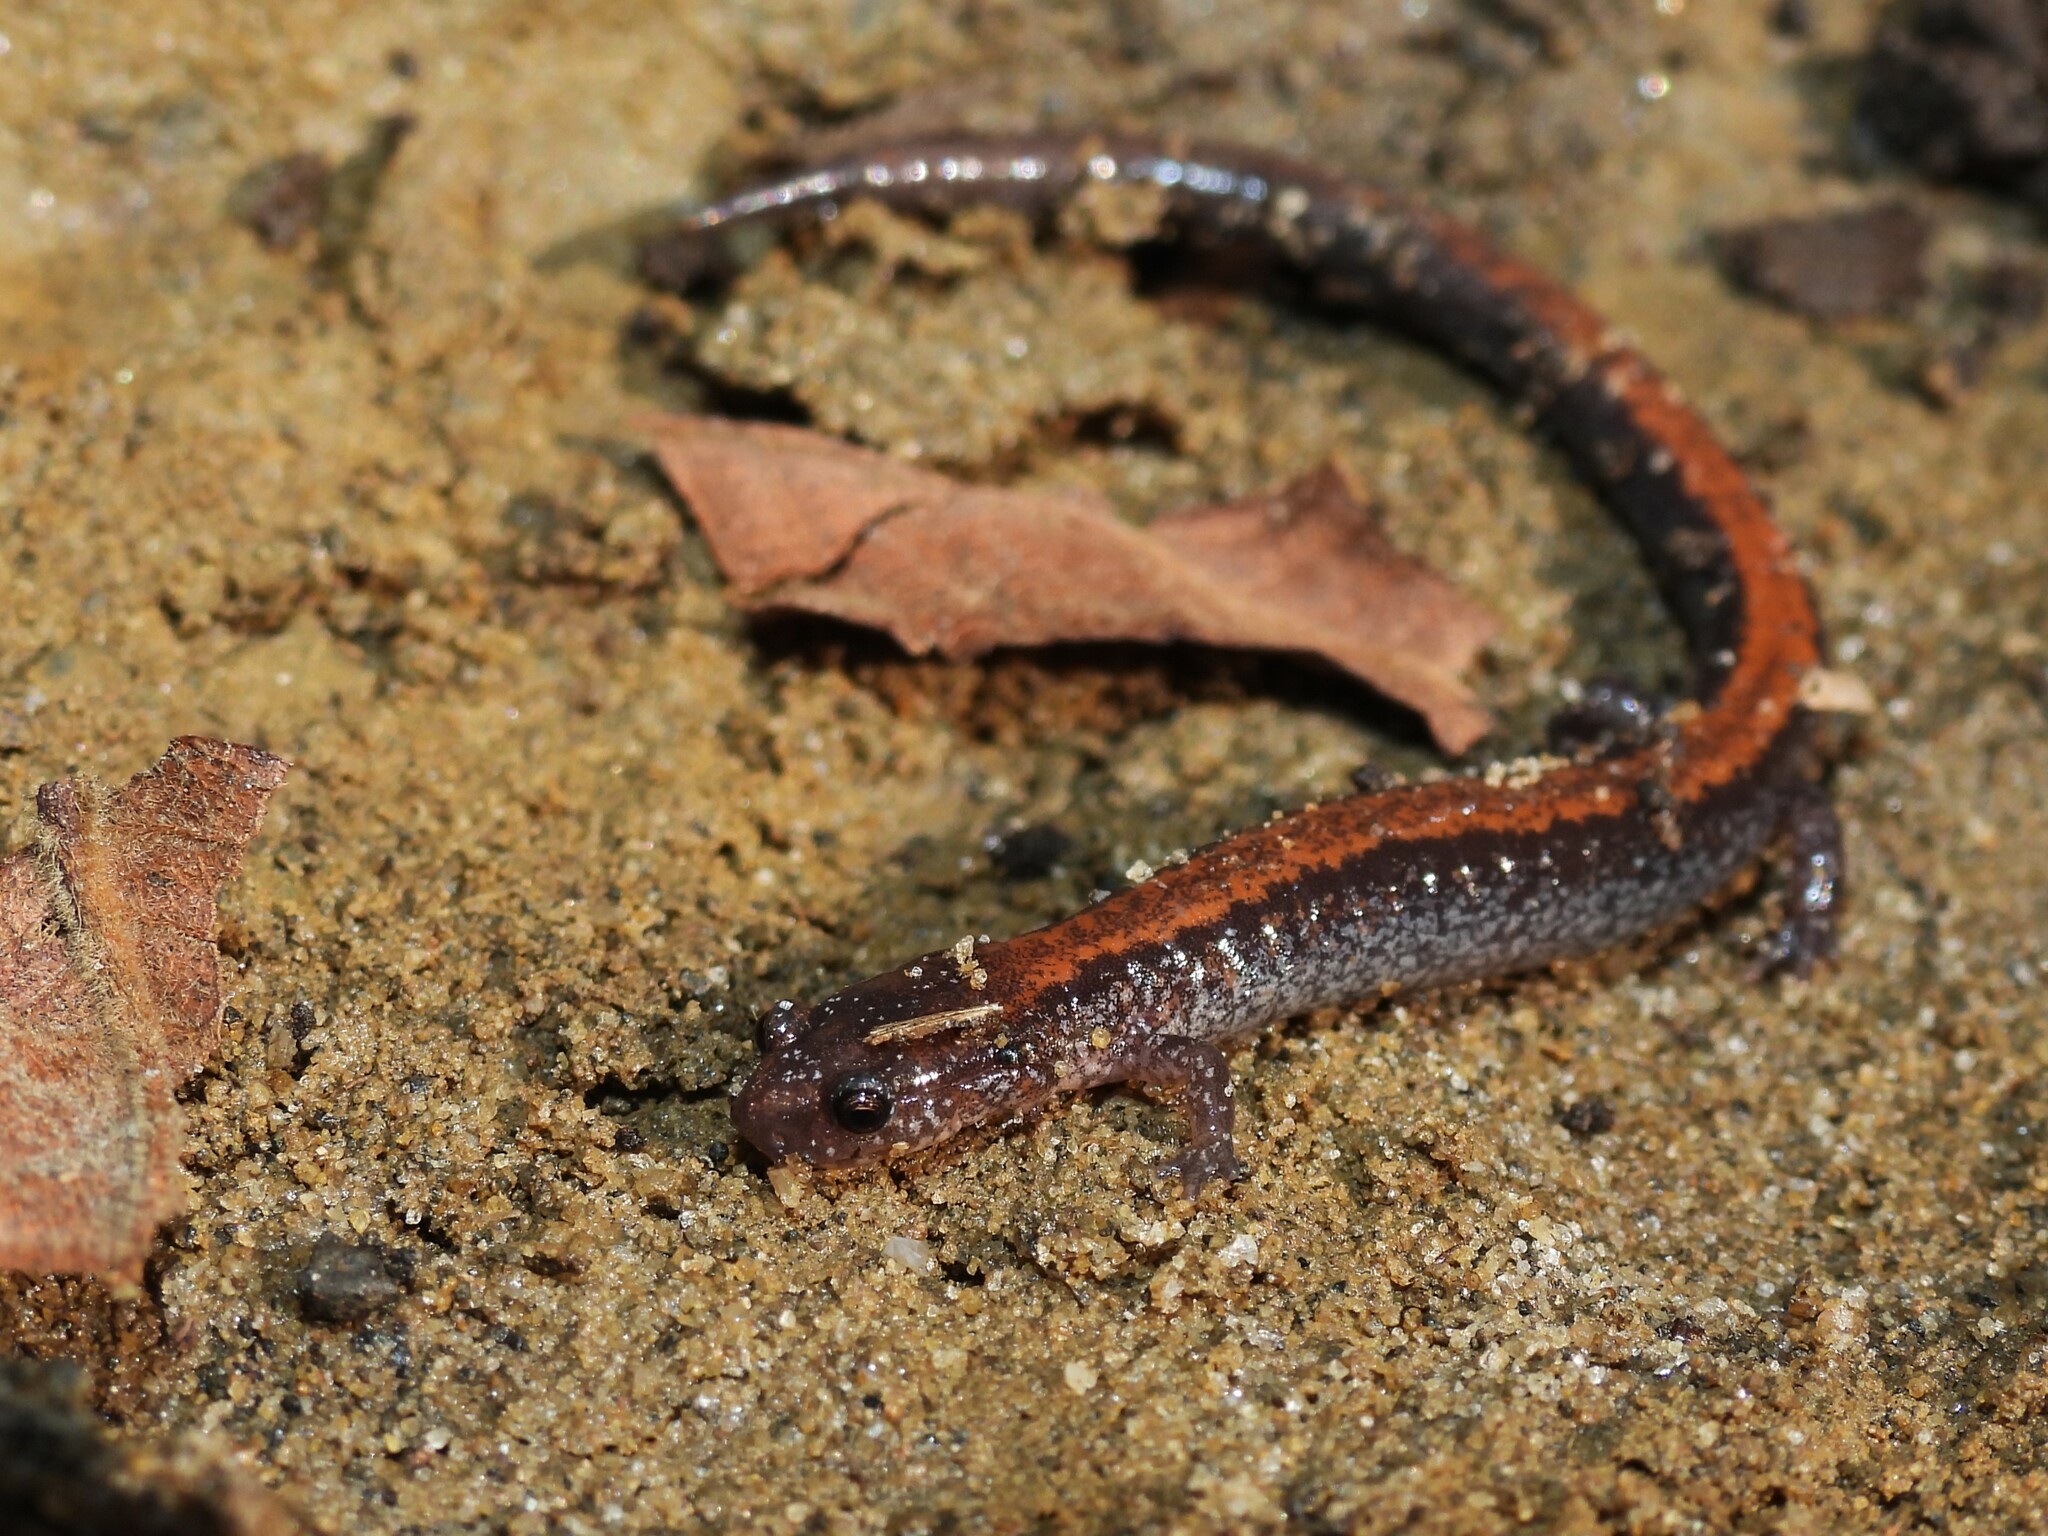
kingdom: Animalia
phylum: Chordata
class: Amphibia
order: Caudata
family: Plethodontidae
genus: Plethodon
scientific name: Plethodon cinereus
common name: Redback salamander
